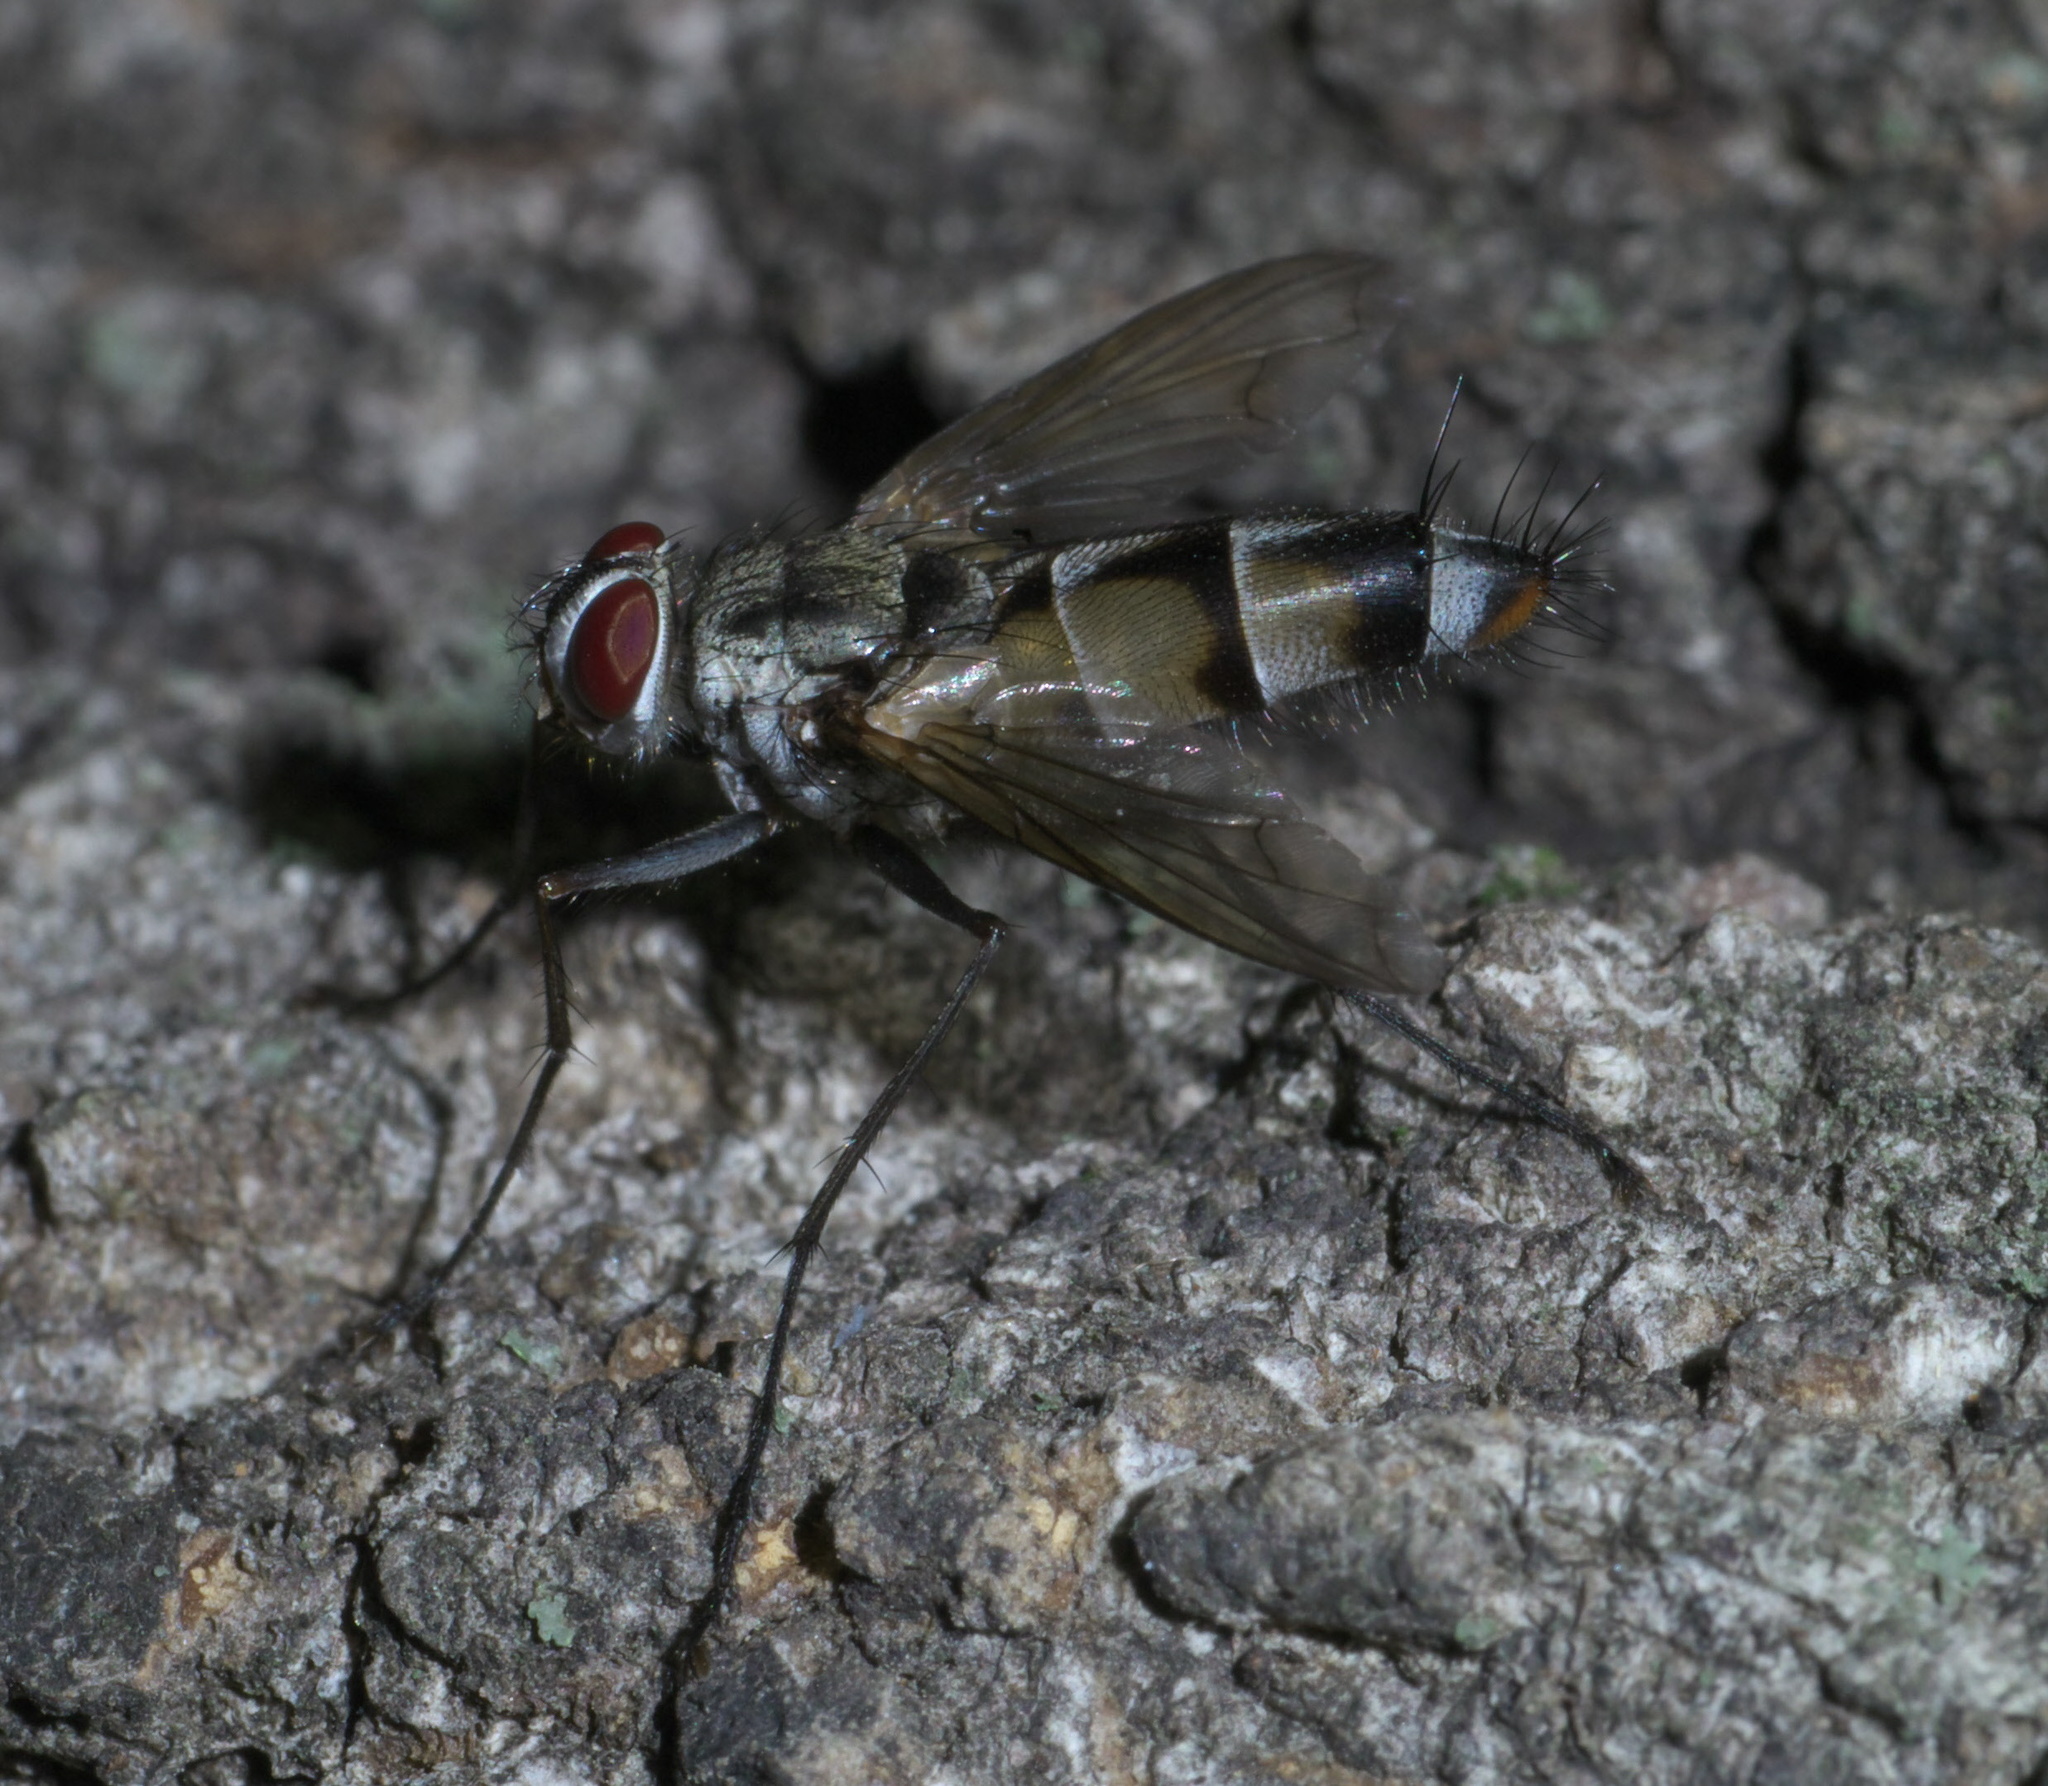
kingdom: Animalia
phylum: Arthropoda
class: Insecta
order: Diptera
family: Tachinidae
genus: Zelia
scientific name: Zelia vertebrata
